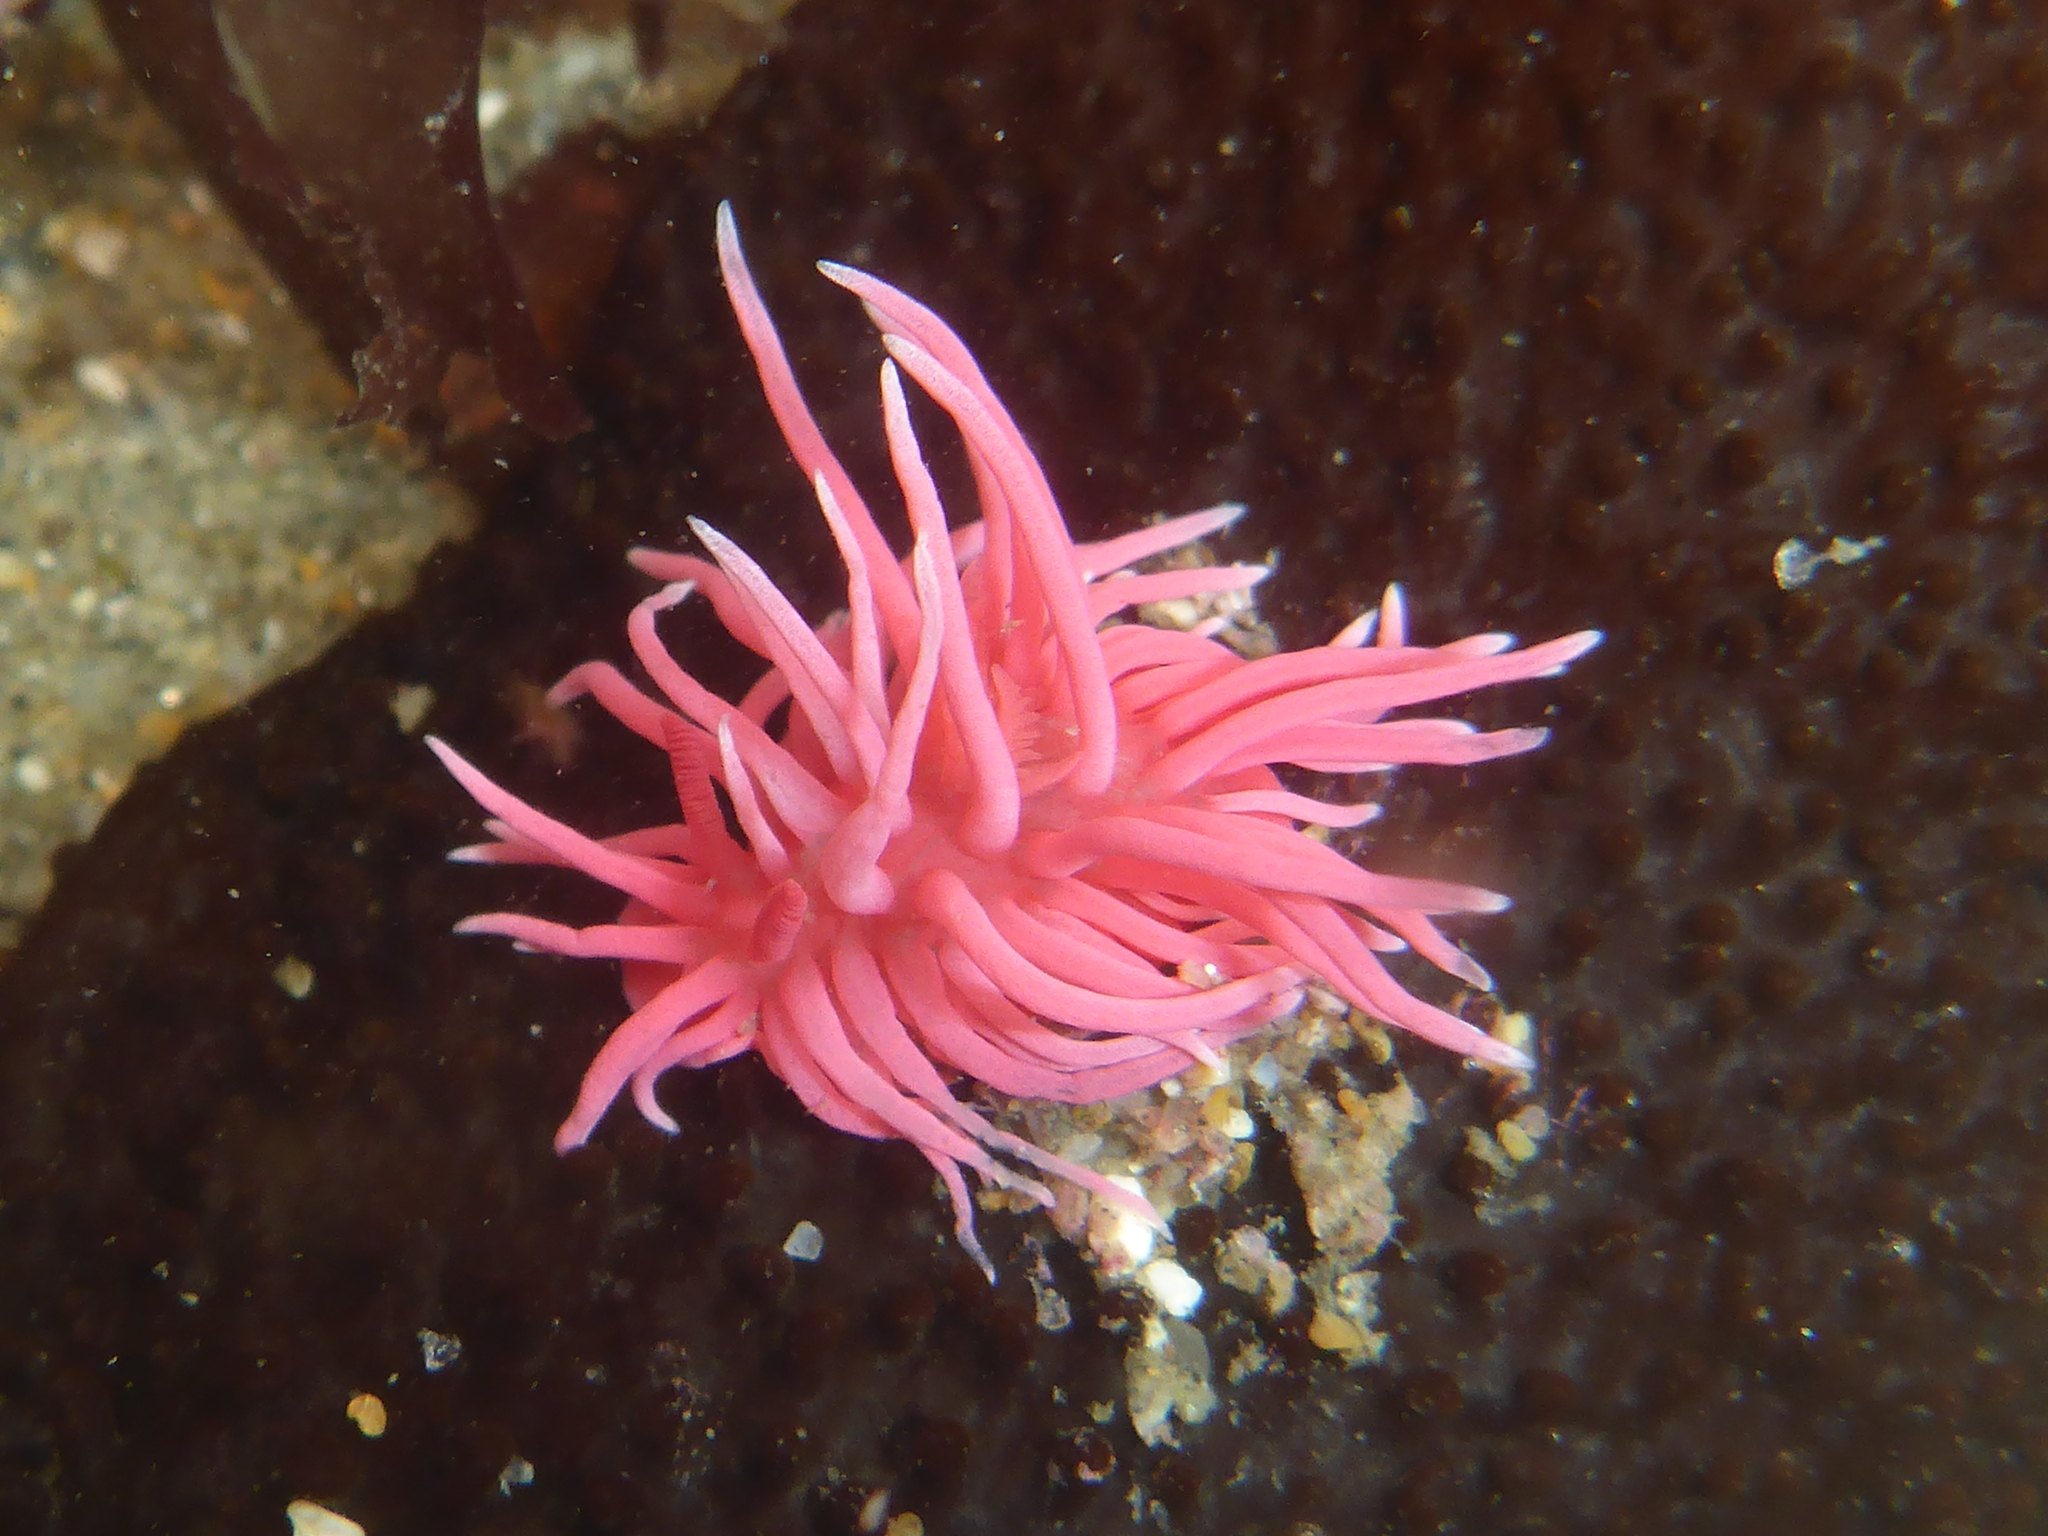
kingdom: Animalia
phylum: Mollusca
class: Gastropoda
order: Nudibranchia
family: Goniodorididae
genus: Okenia
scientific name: Okenia
